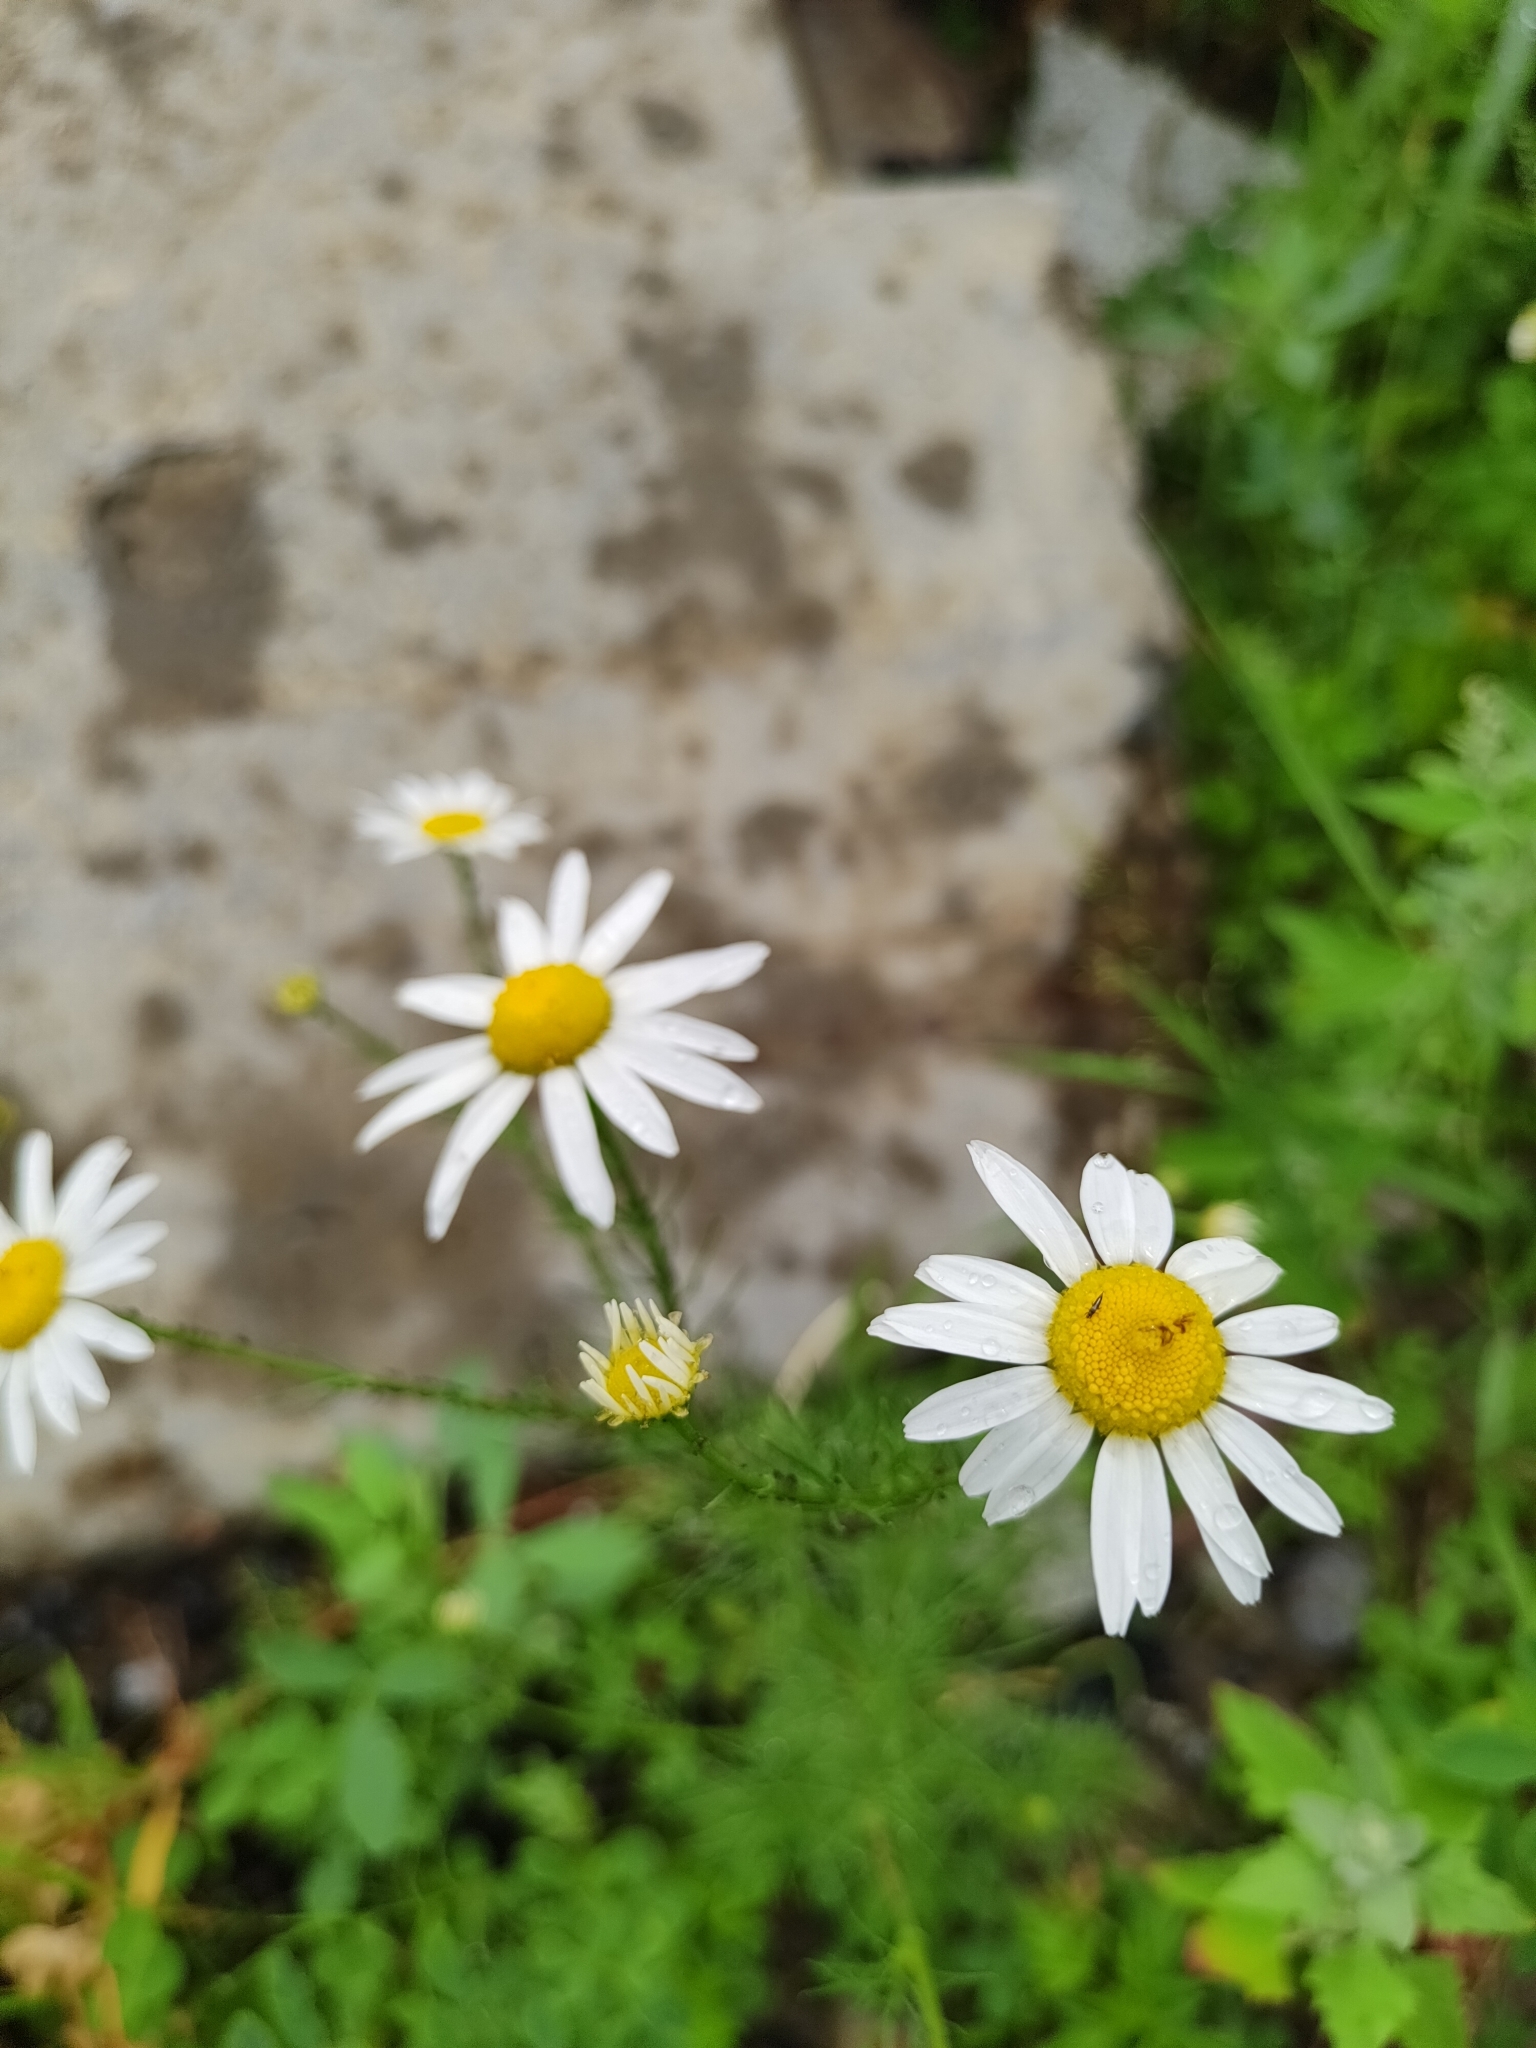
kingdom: Plantae
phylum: Tracheophyta
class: Magnoliopsida
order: Asterales
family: Asteraceae
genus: Tripleurospermum
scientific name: Tripleurospermum inodorum
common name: Scentless mayweed
